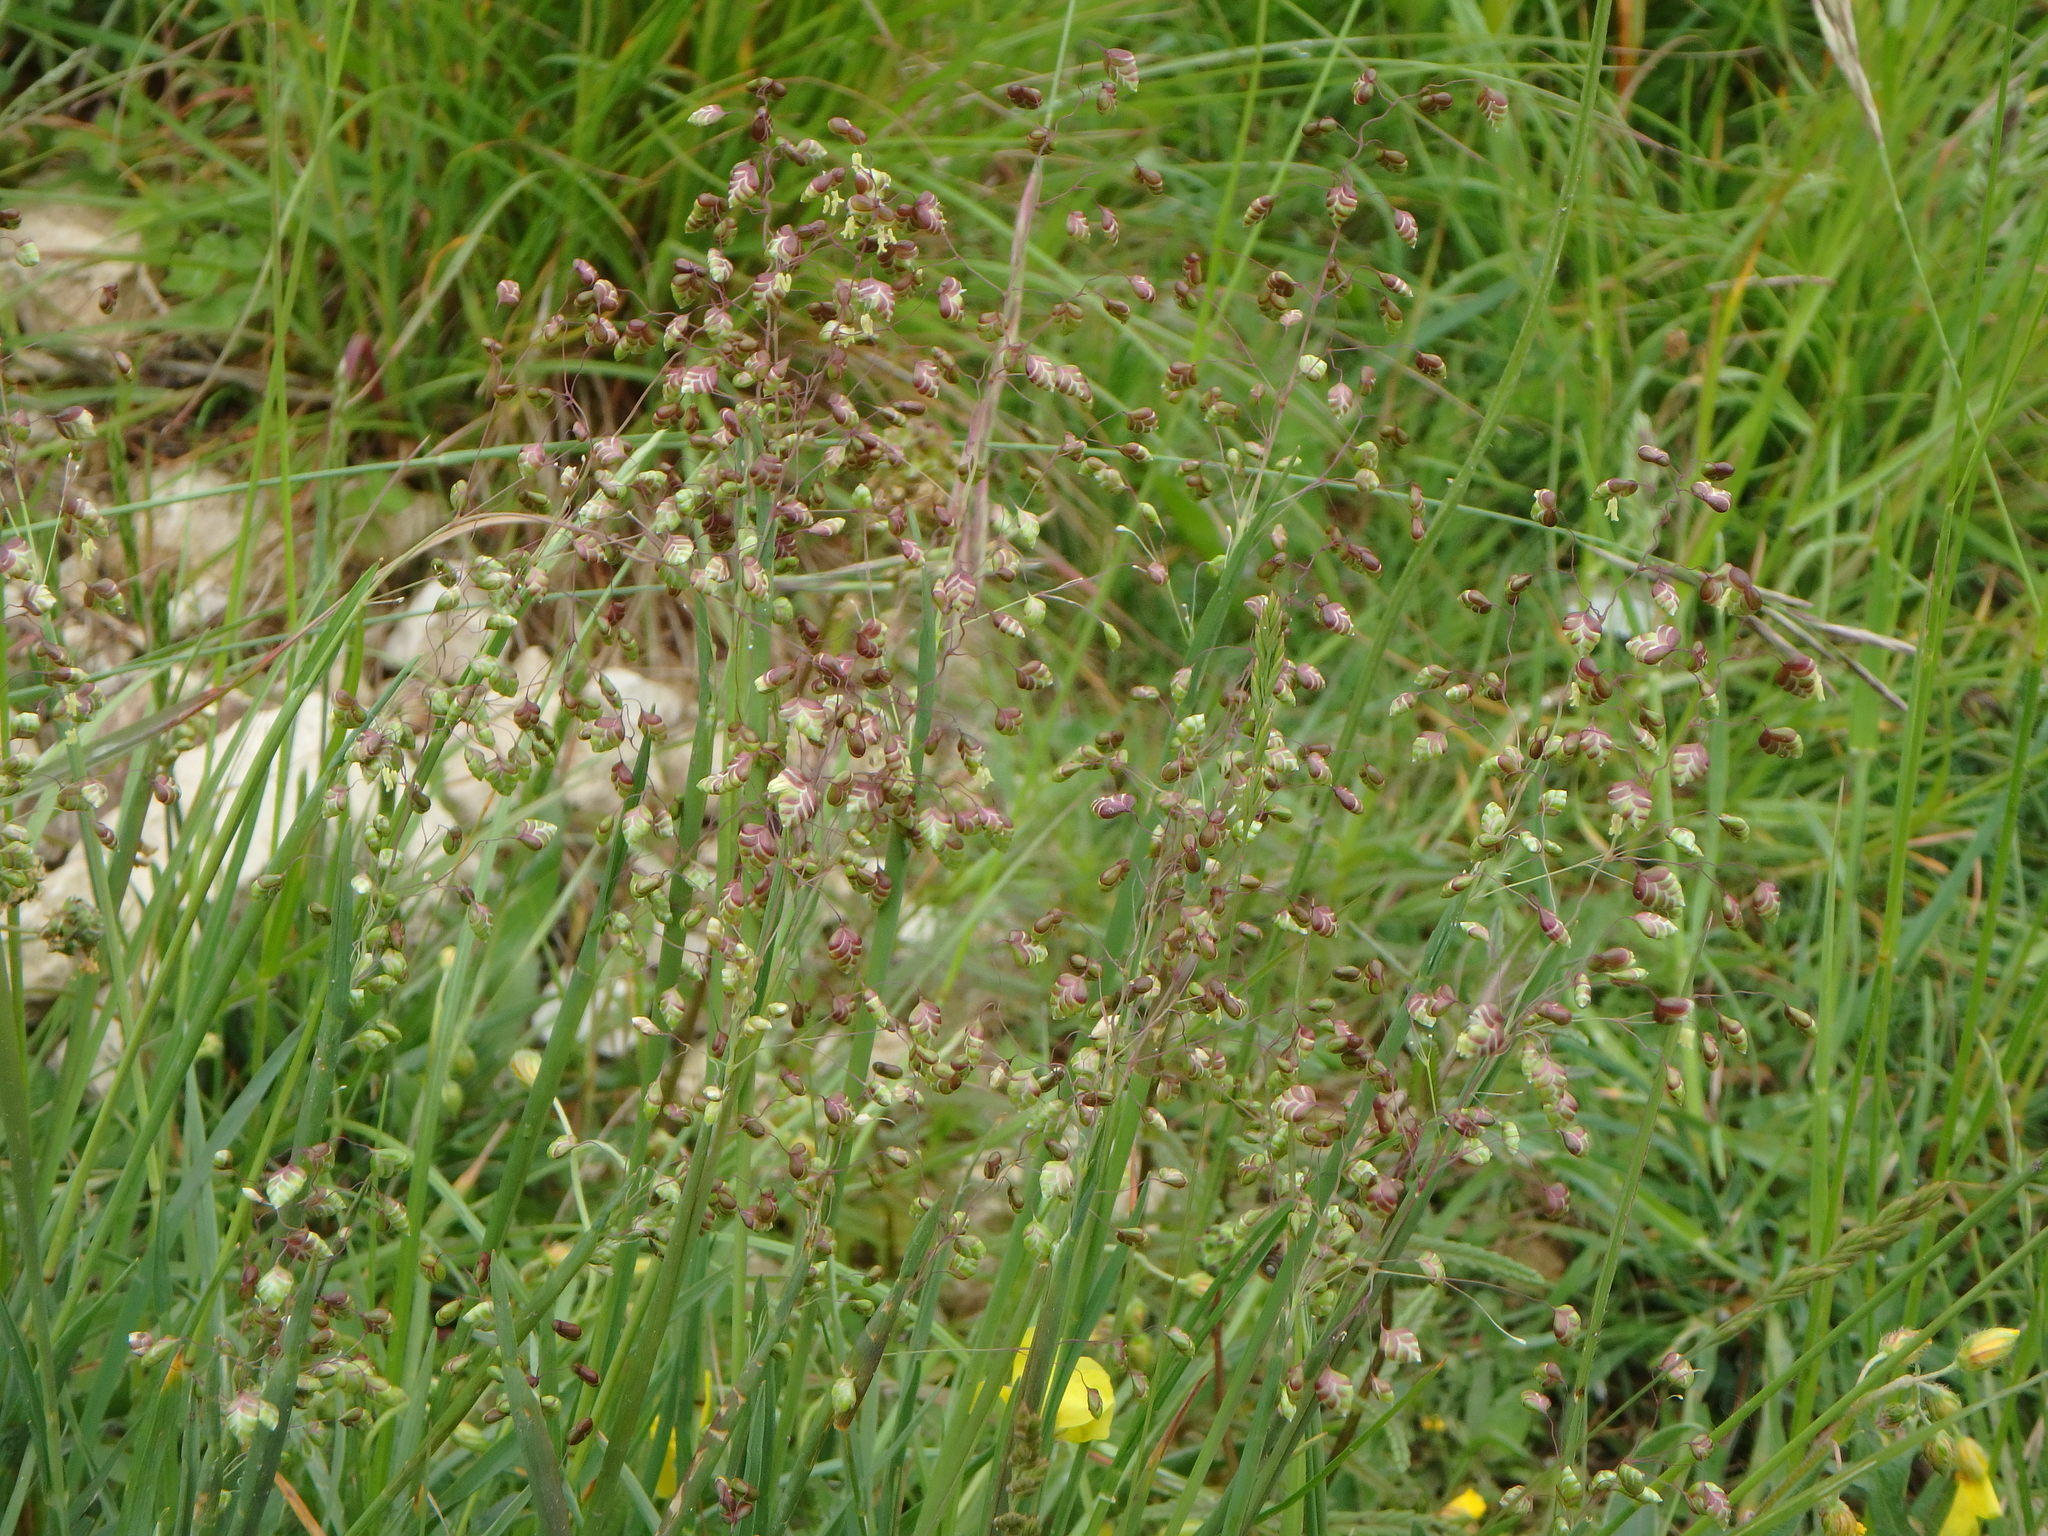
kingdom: Plantae
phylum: Tracheophyta
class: Liliopsida
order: Poales
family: Poaceae
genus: Briza
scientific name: Briza media
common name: Quaking grass
